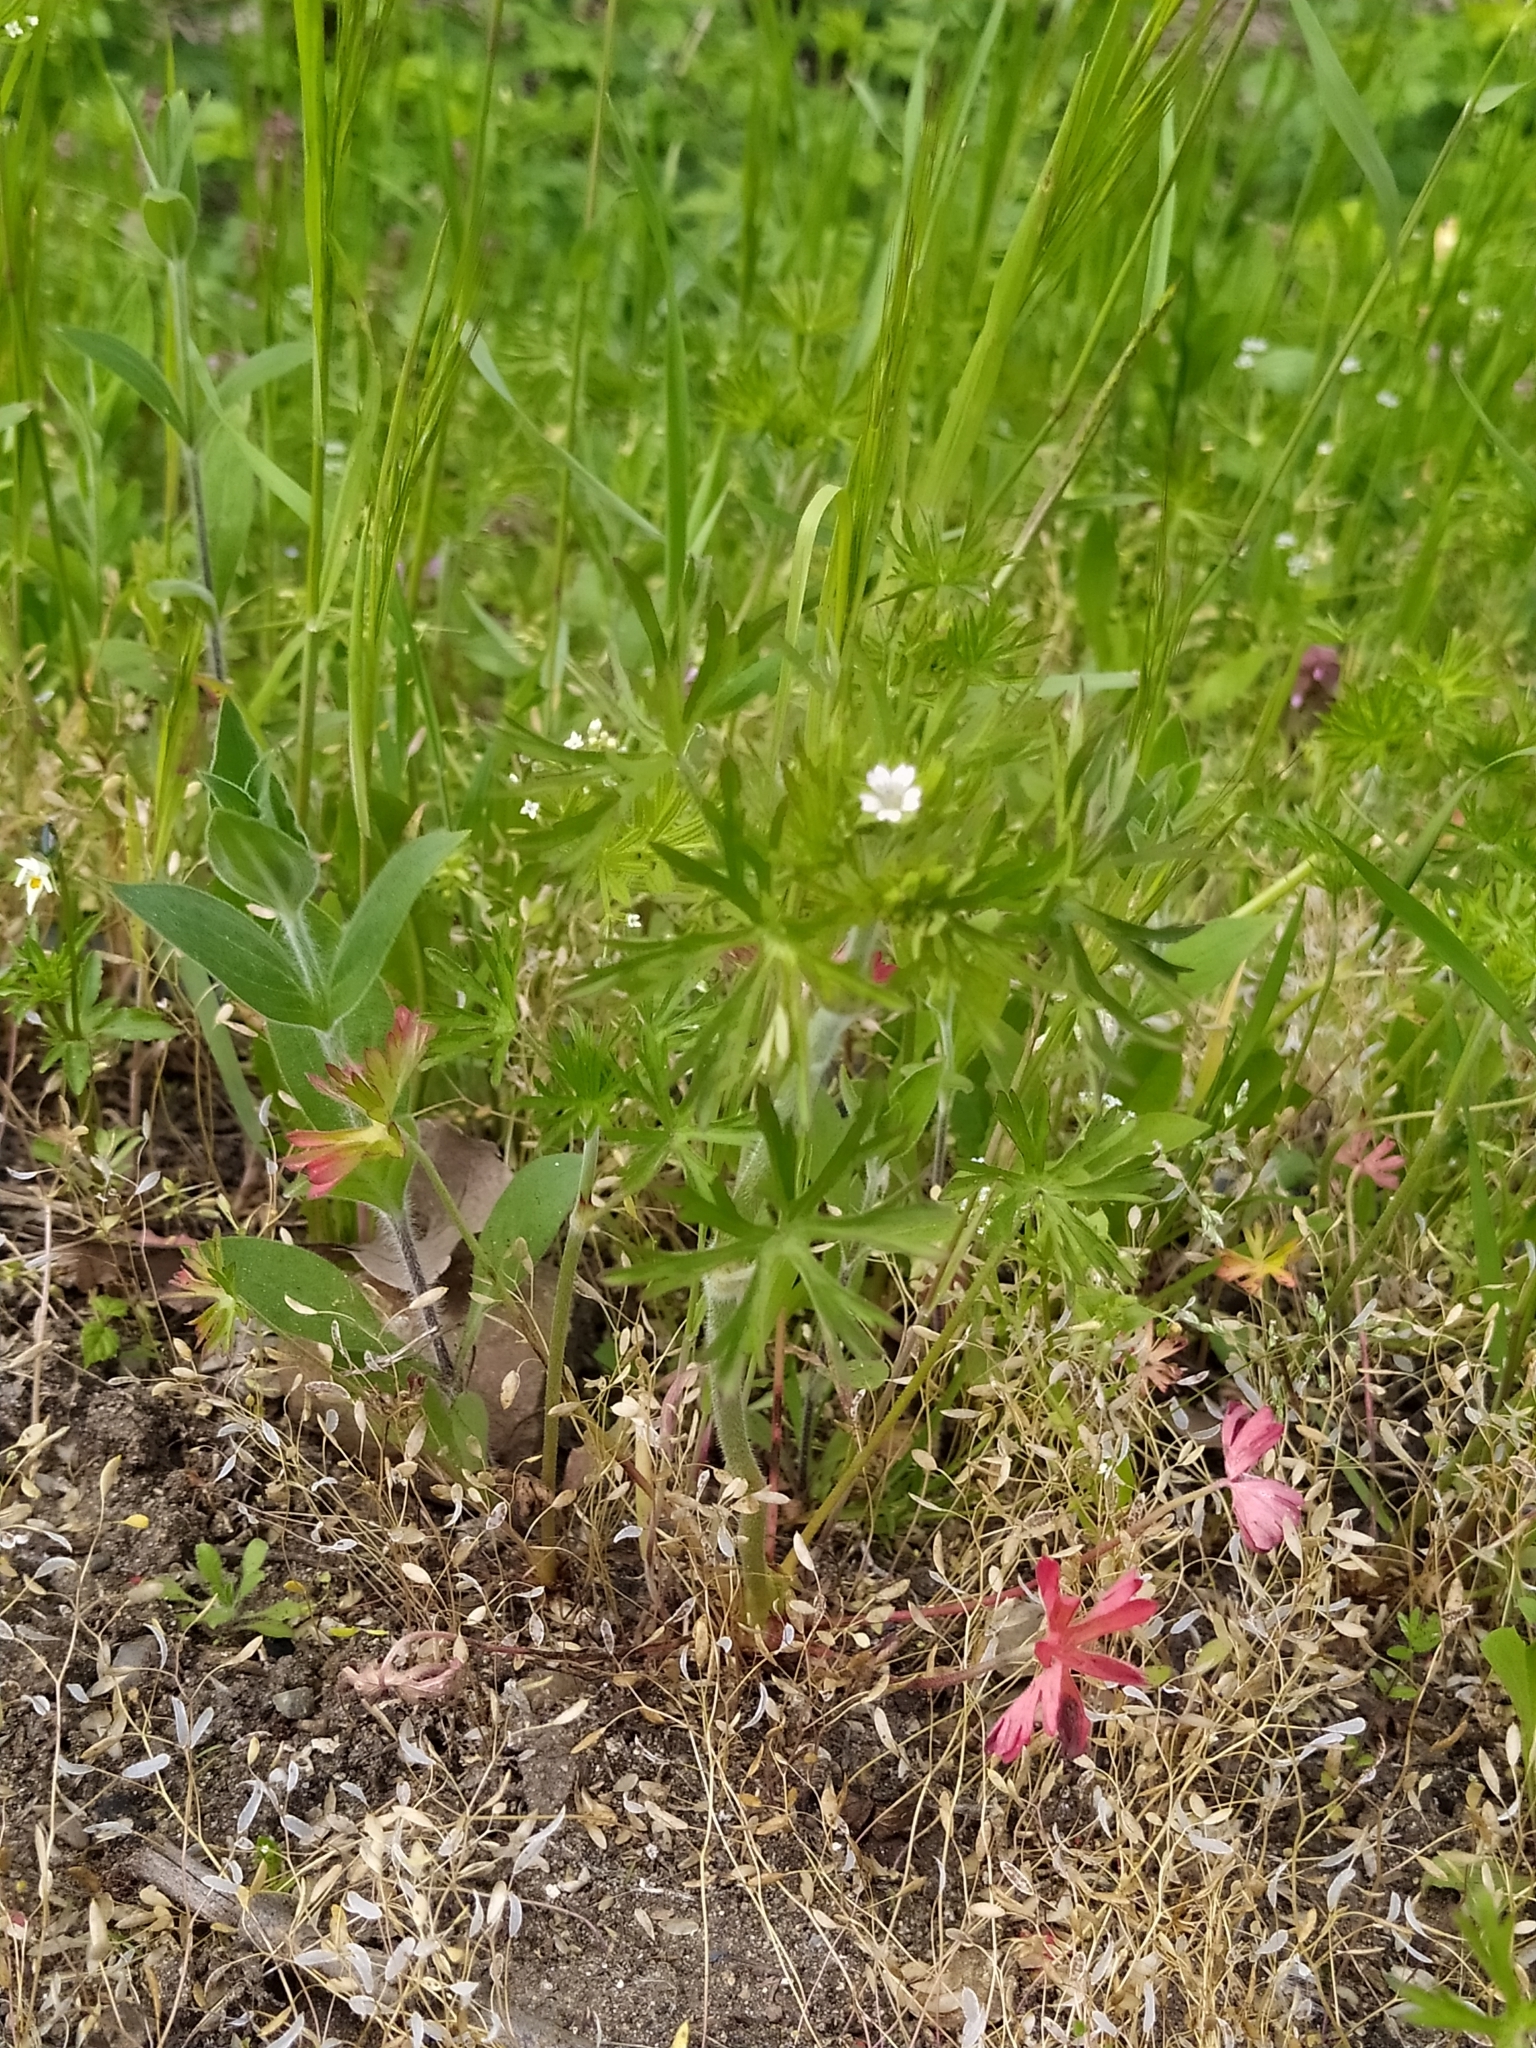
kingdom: Plantae
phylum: Tracheophyta
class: Magnoliopsida
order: Geraniales
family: Geraniaceae
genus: Geranium
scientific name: Geranium dissectum
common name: Cut-leaved crane's-bill
